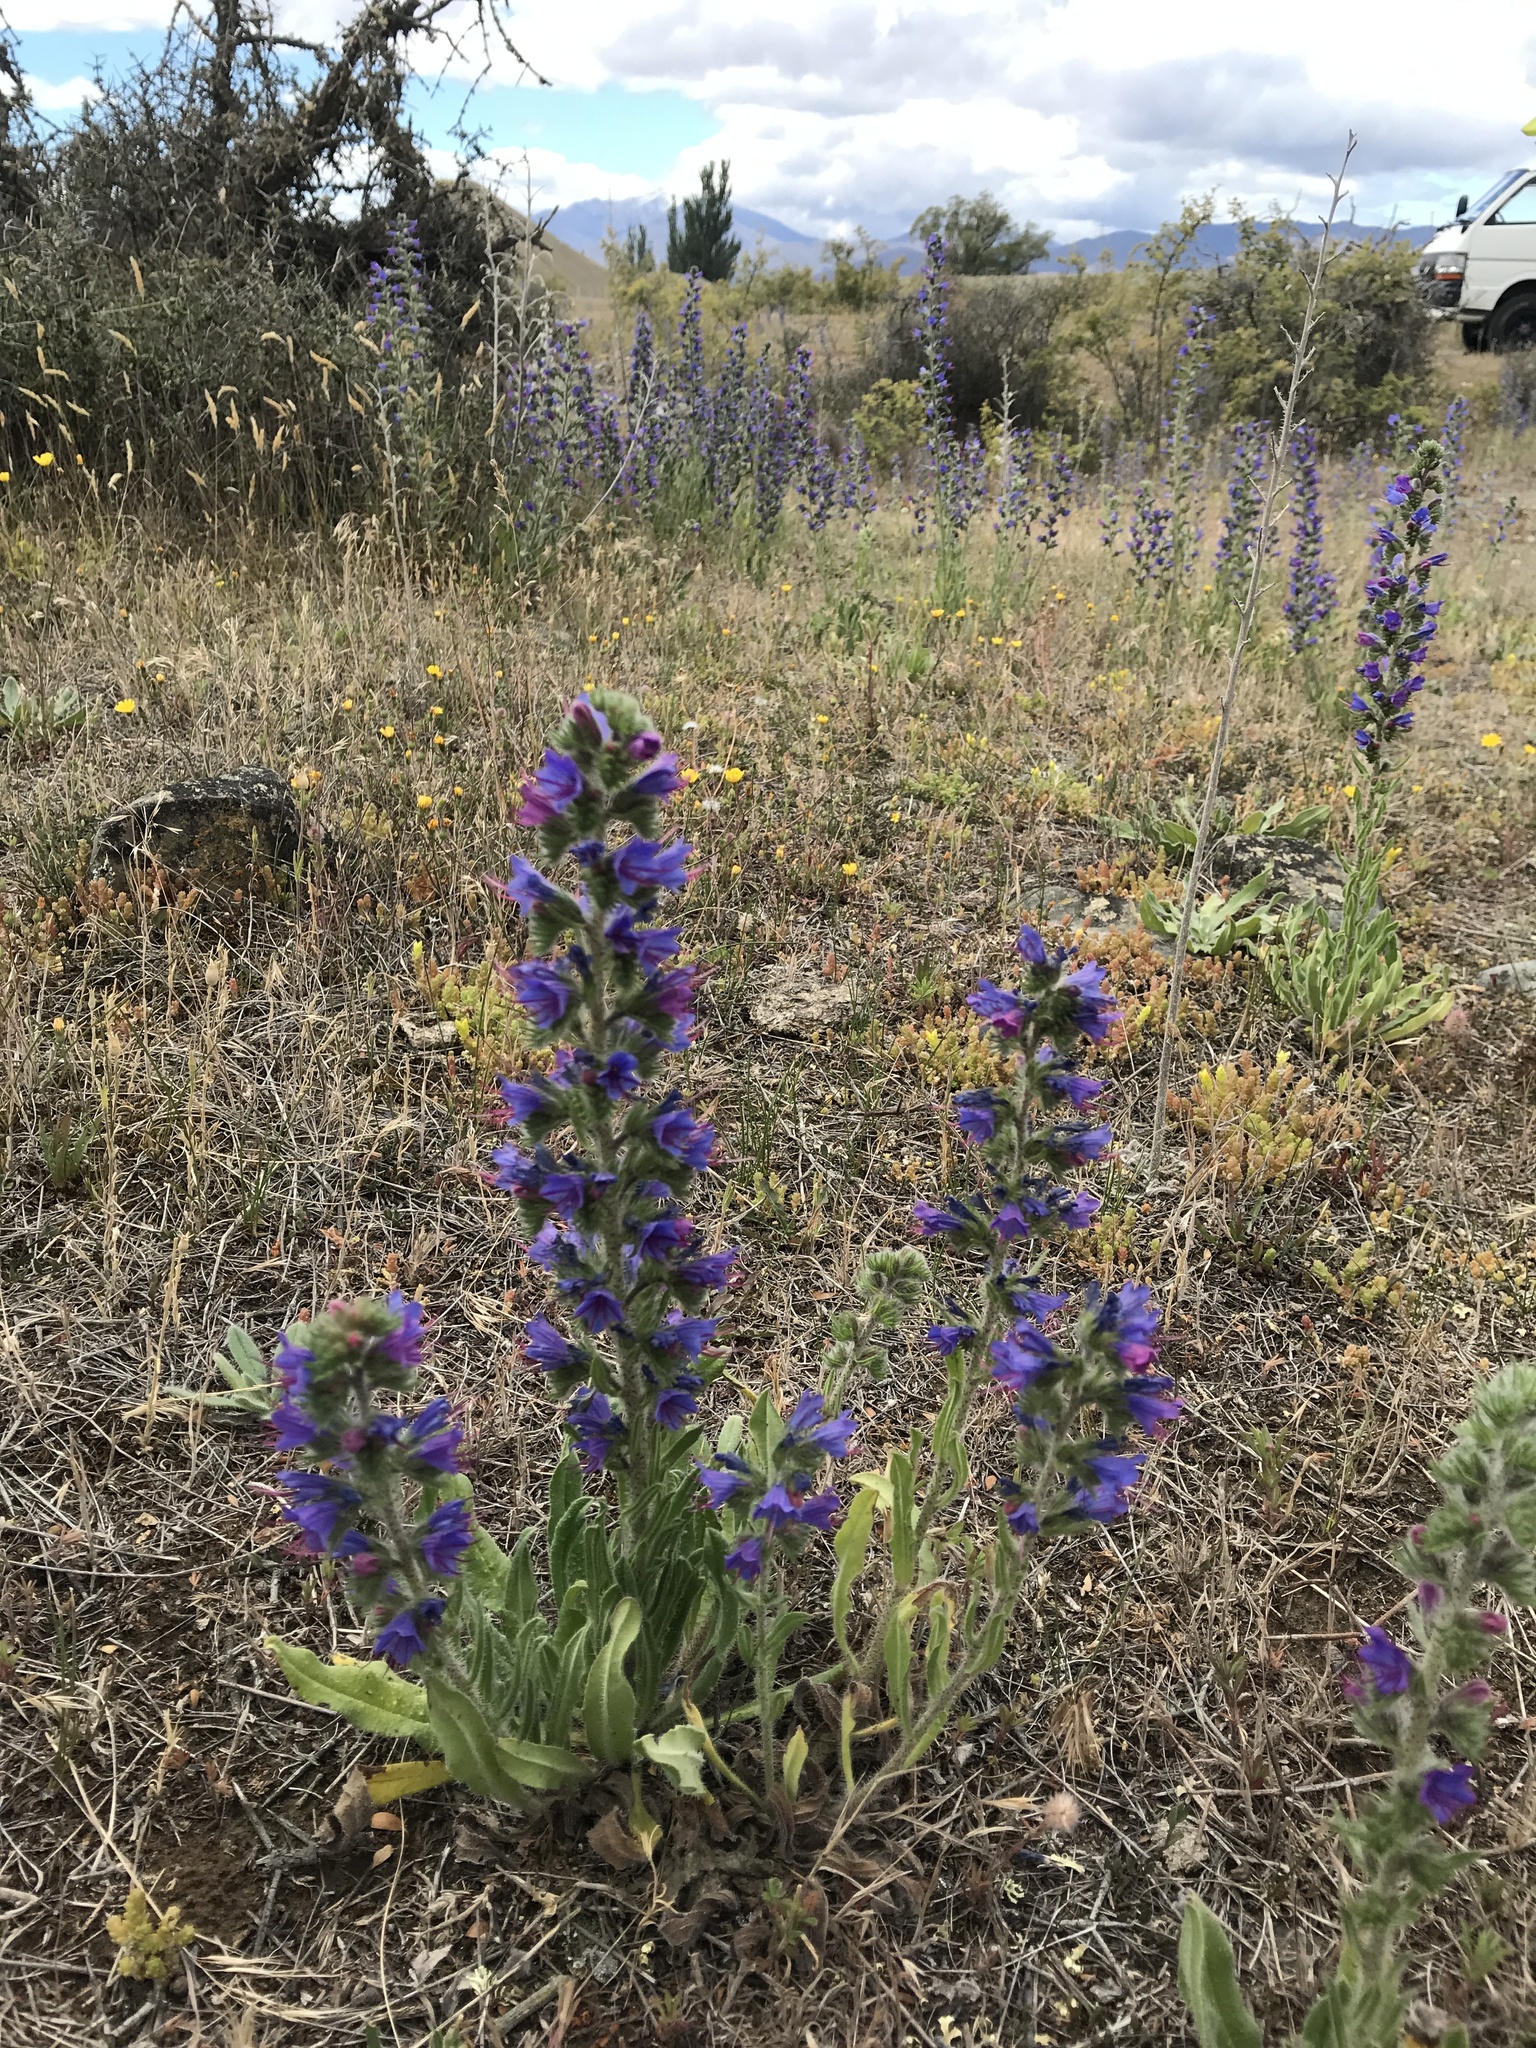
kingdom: Plantae
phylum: Tracheophyta
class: Magnoliopsida
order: Boraginales
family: Boraginaceae
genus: Echium
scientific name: Echium vulgare
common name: Common viper's bugloss
